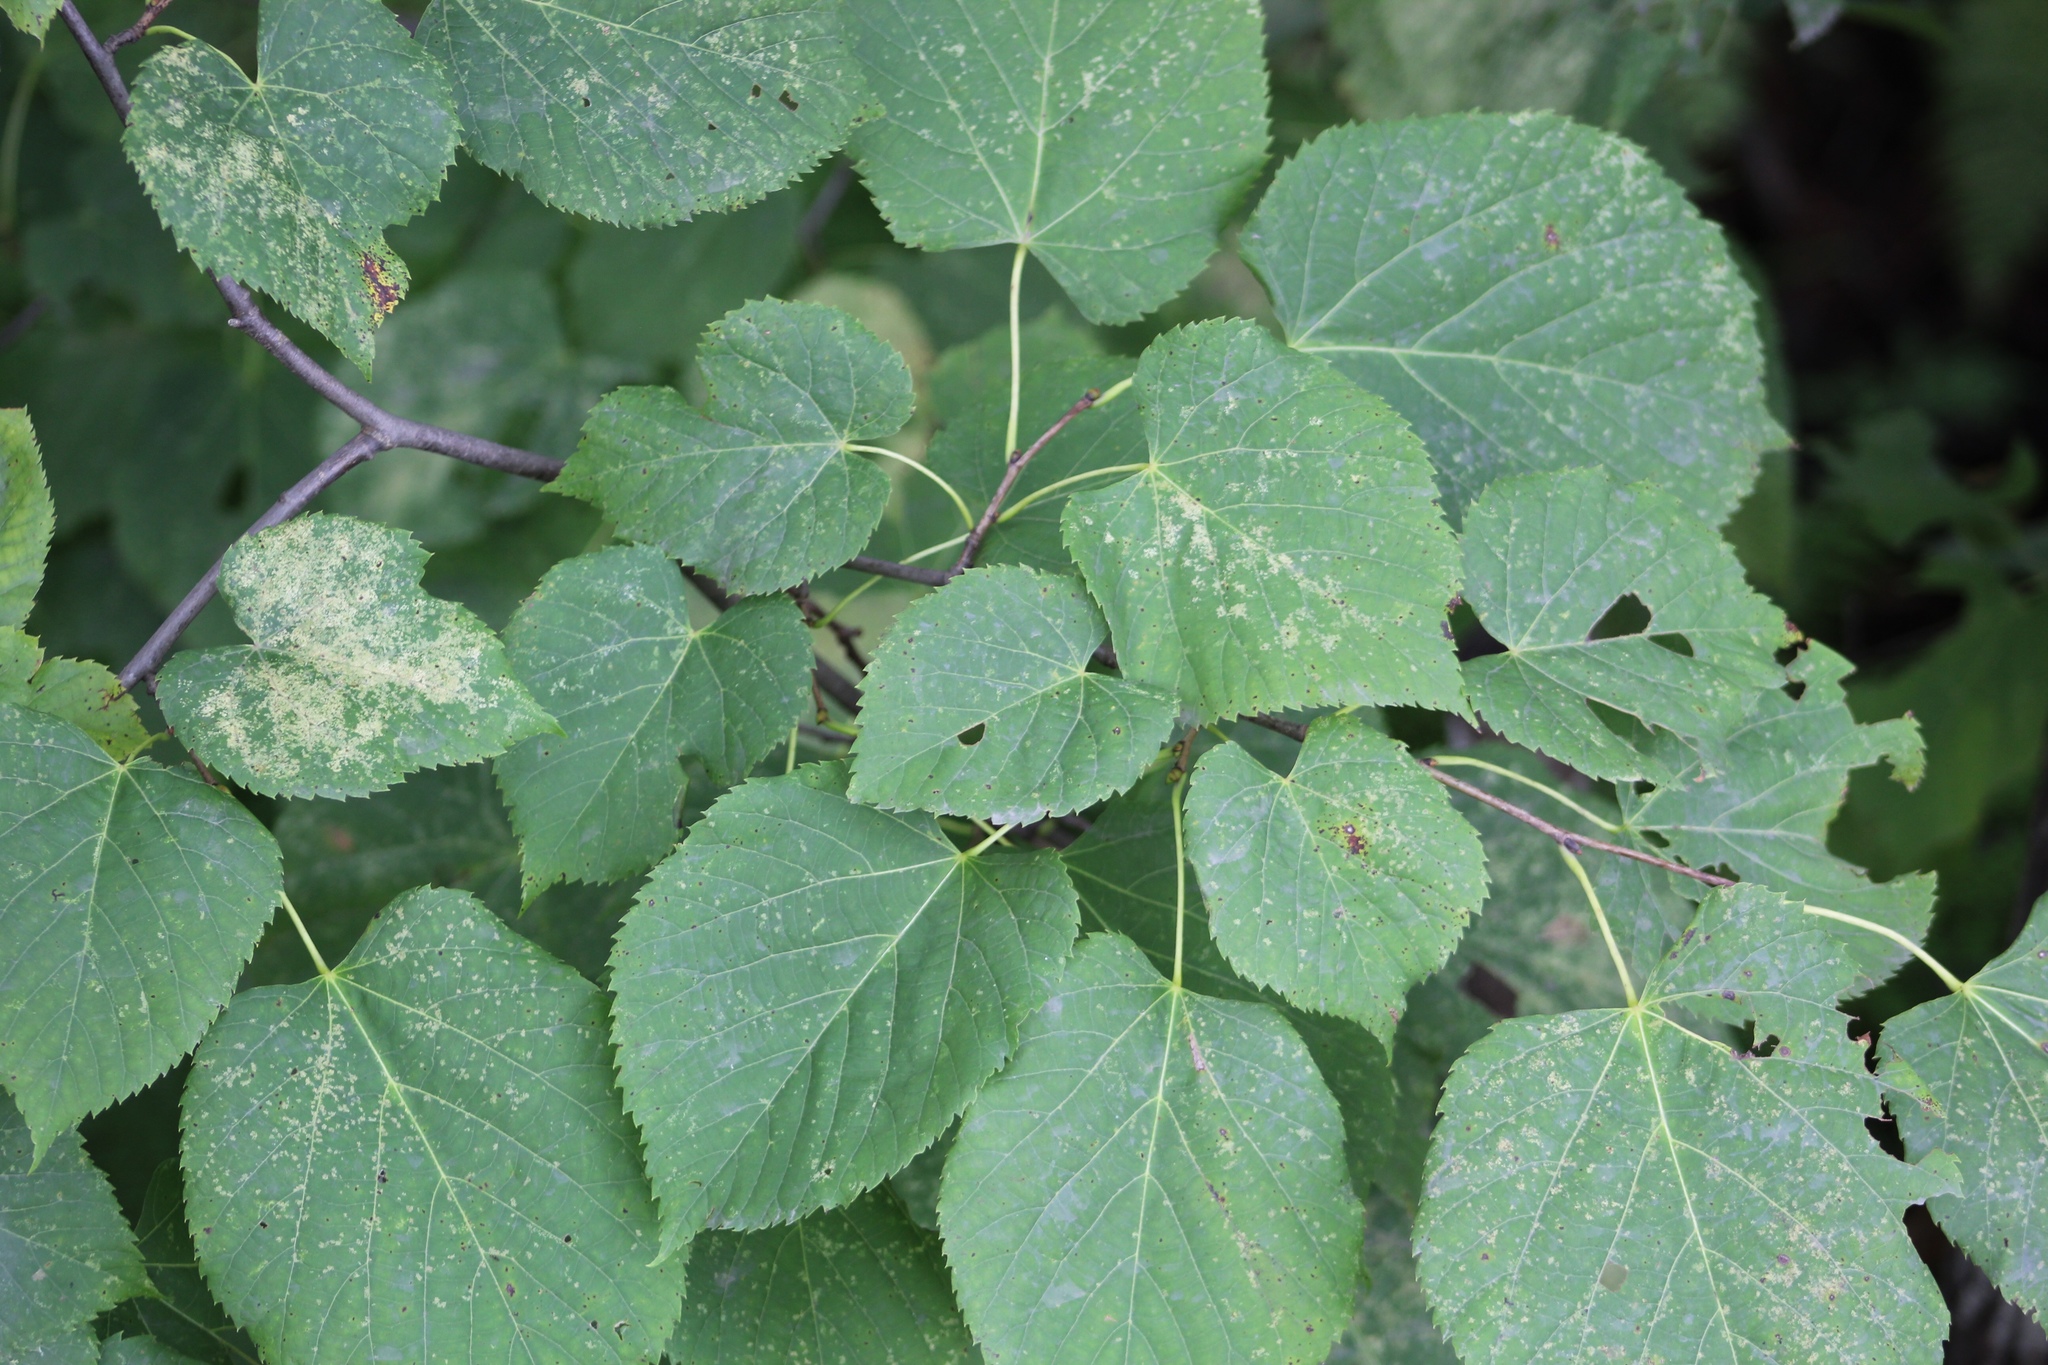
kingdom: Plantae
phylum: Tracheophyta
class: Magnoliopsida
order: Malvales
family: Malvaceae
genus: Tilia
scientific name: Tilia americana
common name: Basswood
